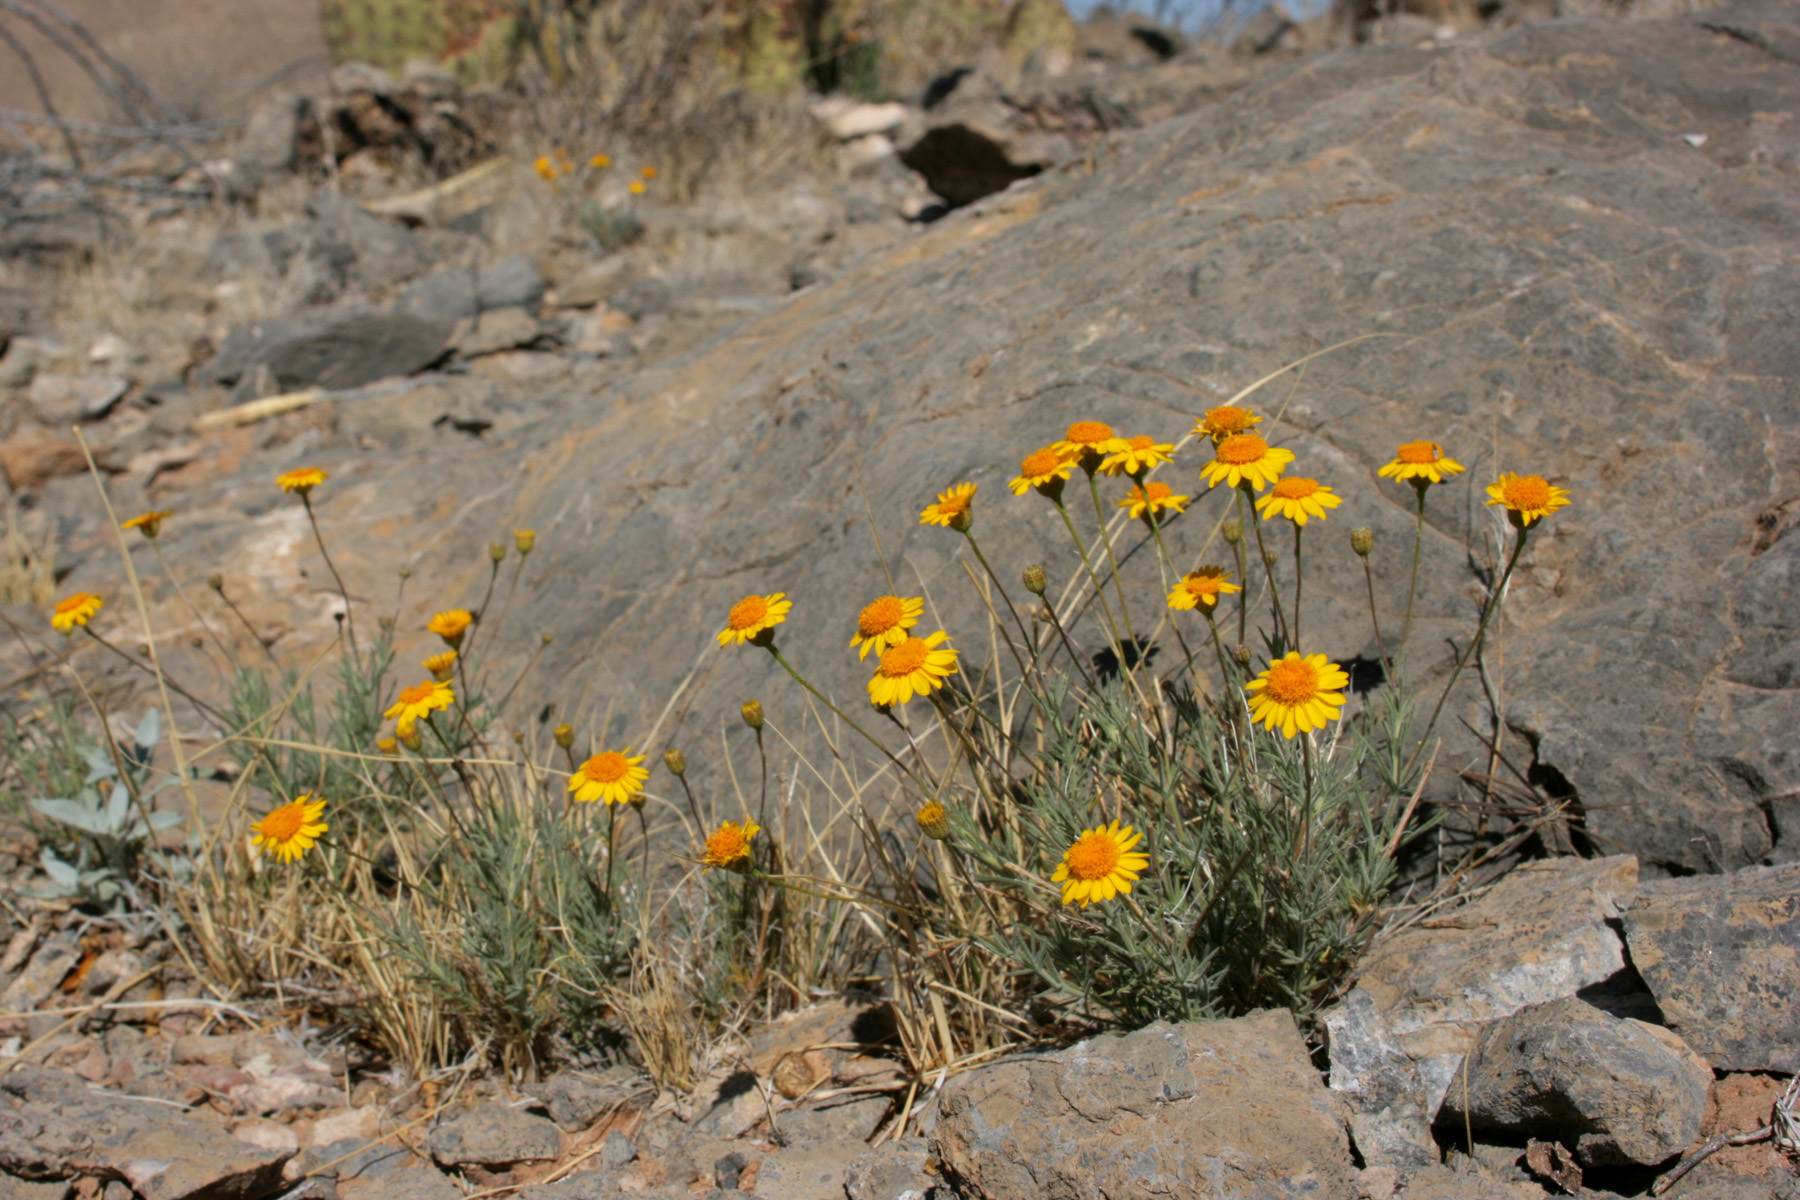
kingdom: Plantae
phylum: Tracheophyta
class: Magnoliopsida
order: Asterales
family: Asteraceae
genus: Thymophylla
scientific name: Thymophylla pentachaeta
